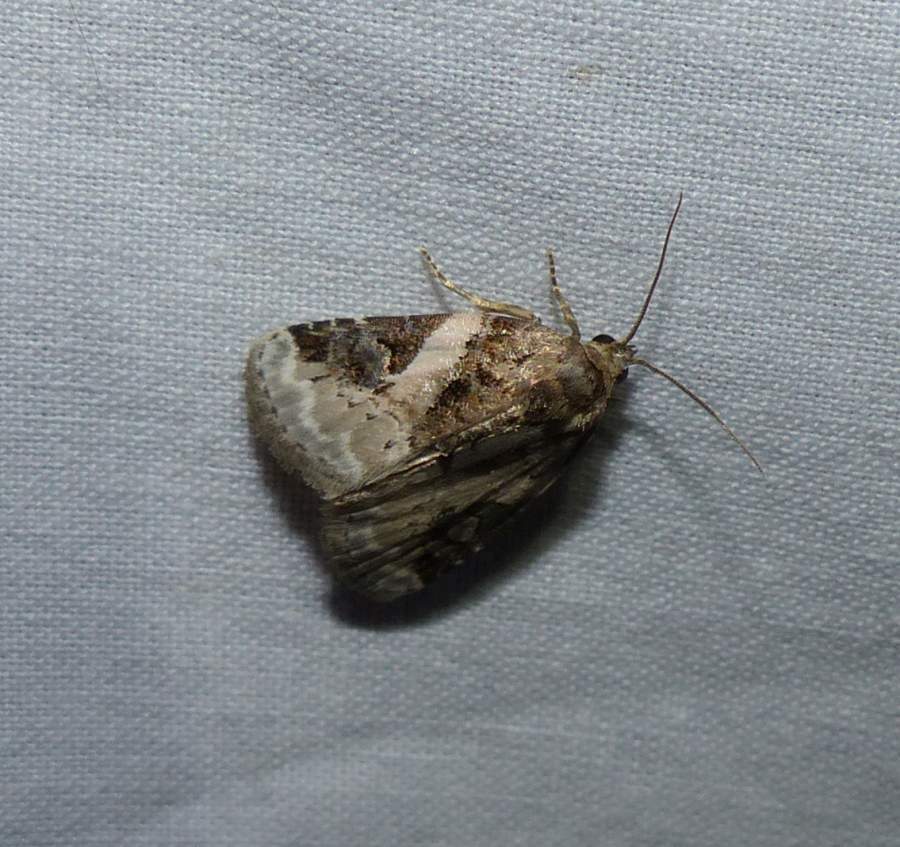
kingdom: Animalia
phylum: Arthropoda
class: Insecta
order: Lepidoptera
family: Noctuidae
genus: Pseudeustrotia
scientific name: Pseudeustrotia carneola
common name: Pink-barred lithacodia moth
